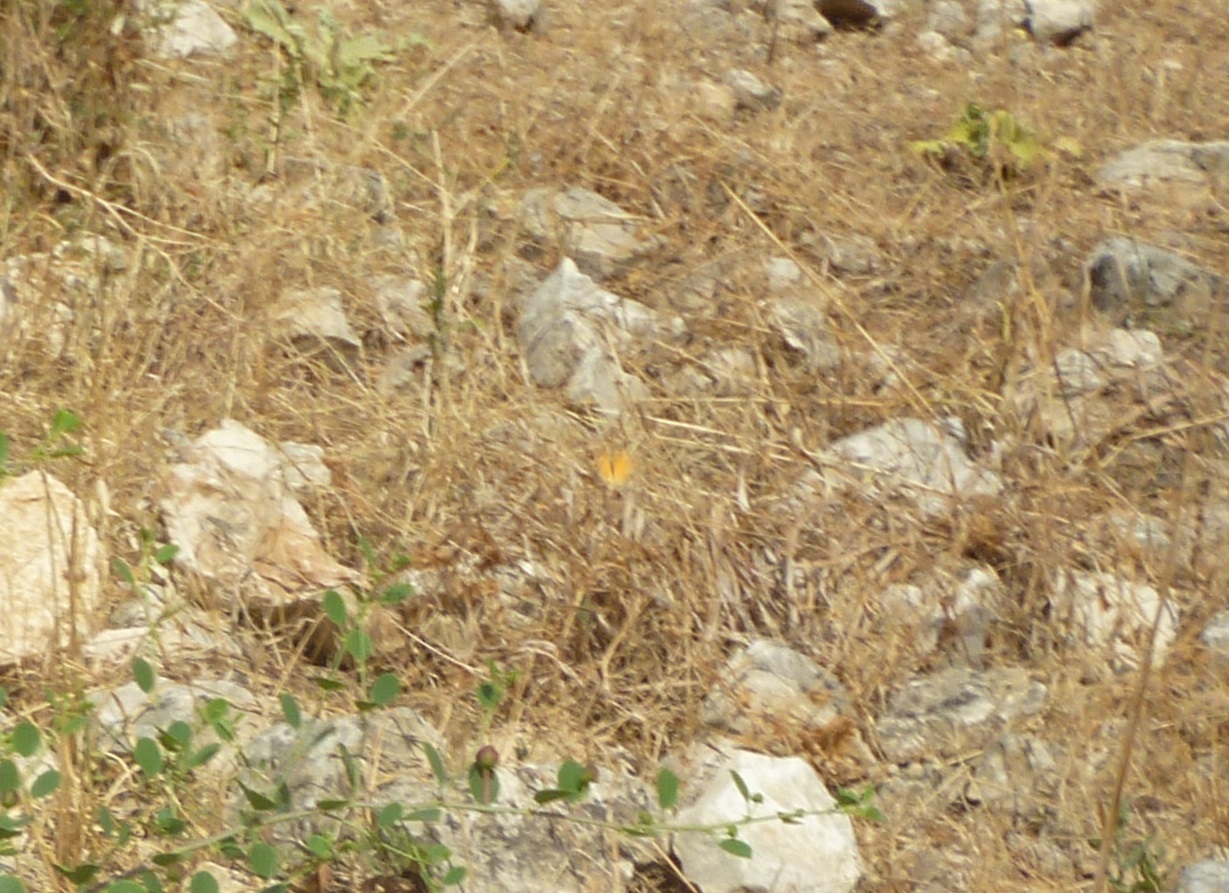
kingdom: Animalia
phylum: Arthropoda
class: Insecta
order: Lepidoptera
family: Pieridae
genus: Colotis
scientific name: Colotis fausta
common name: Large salmon arab
